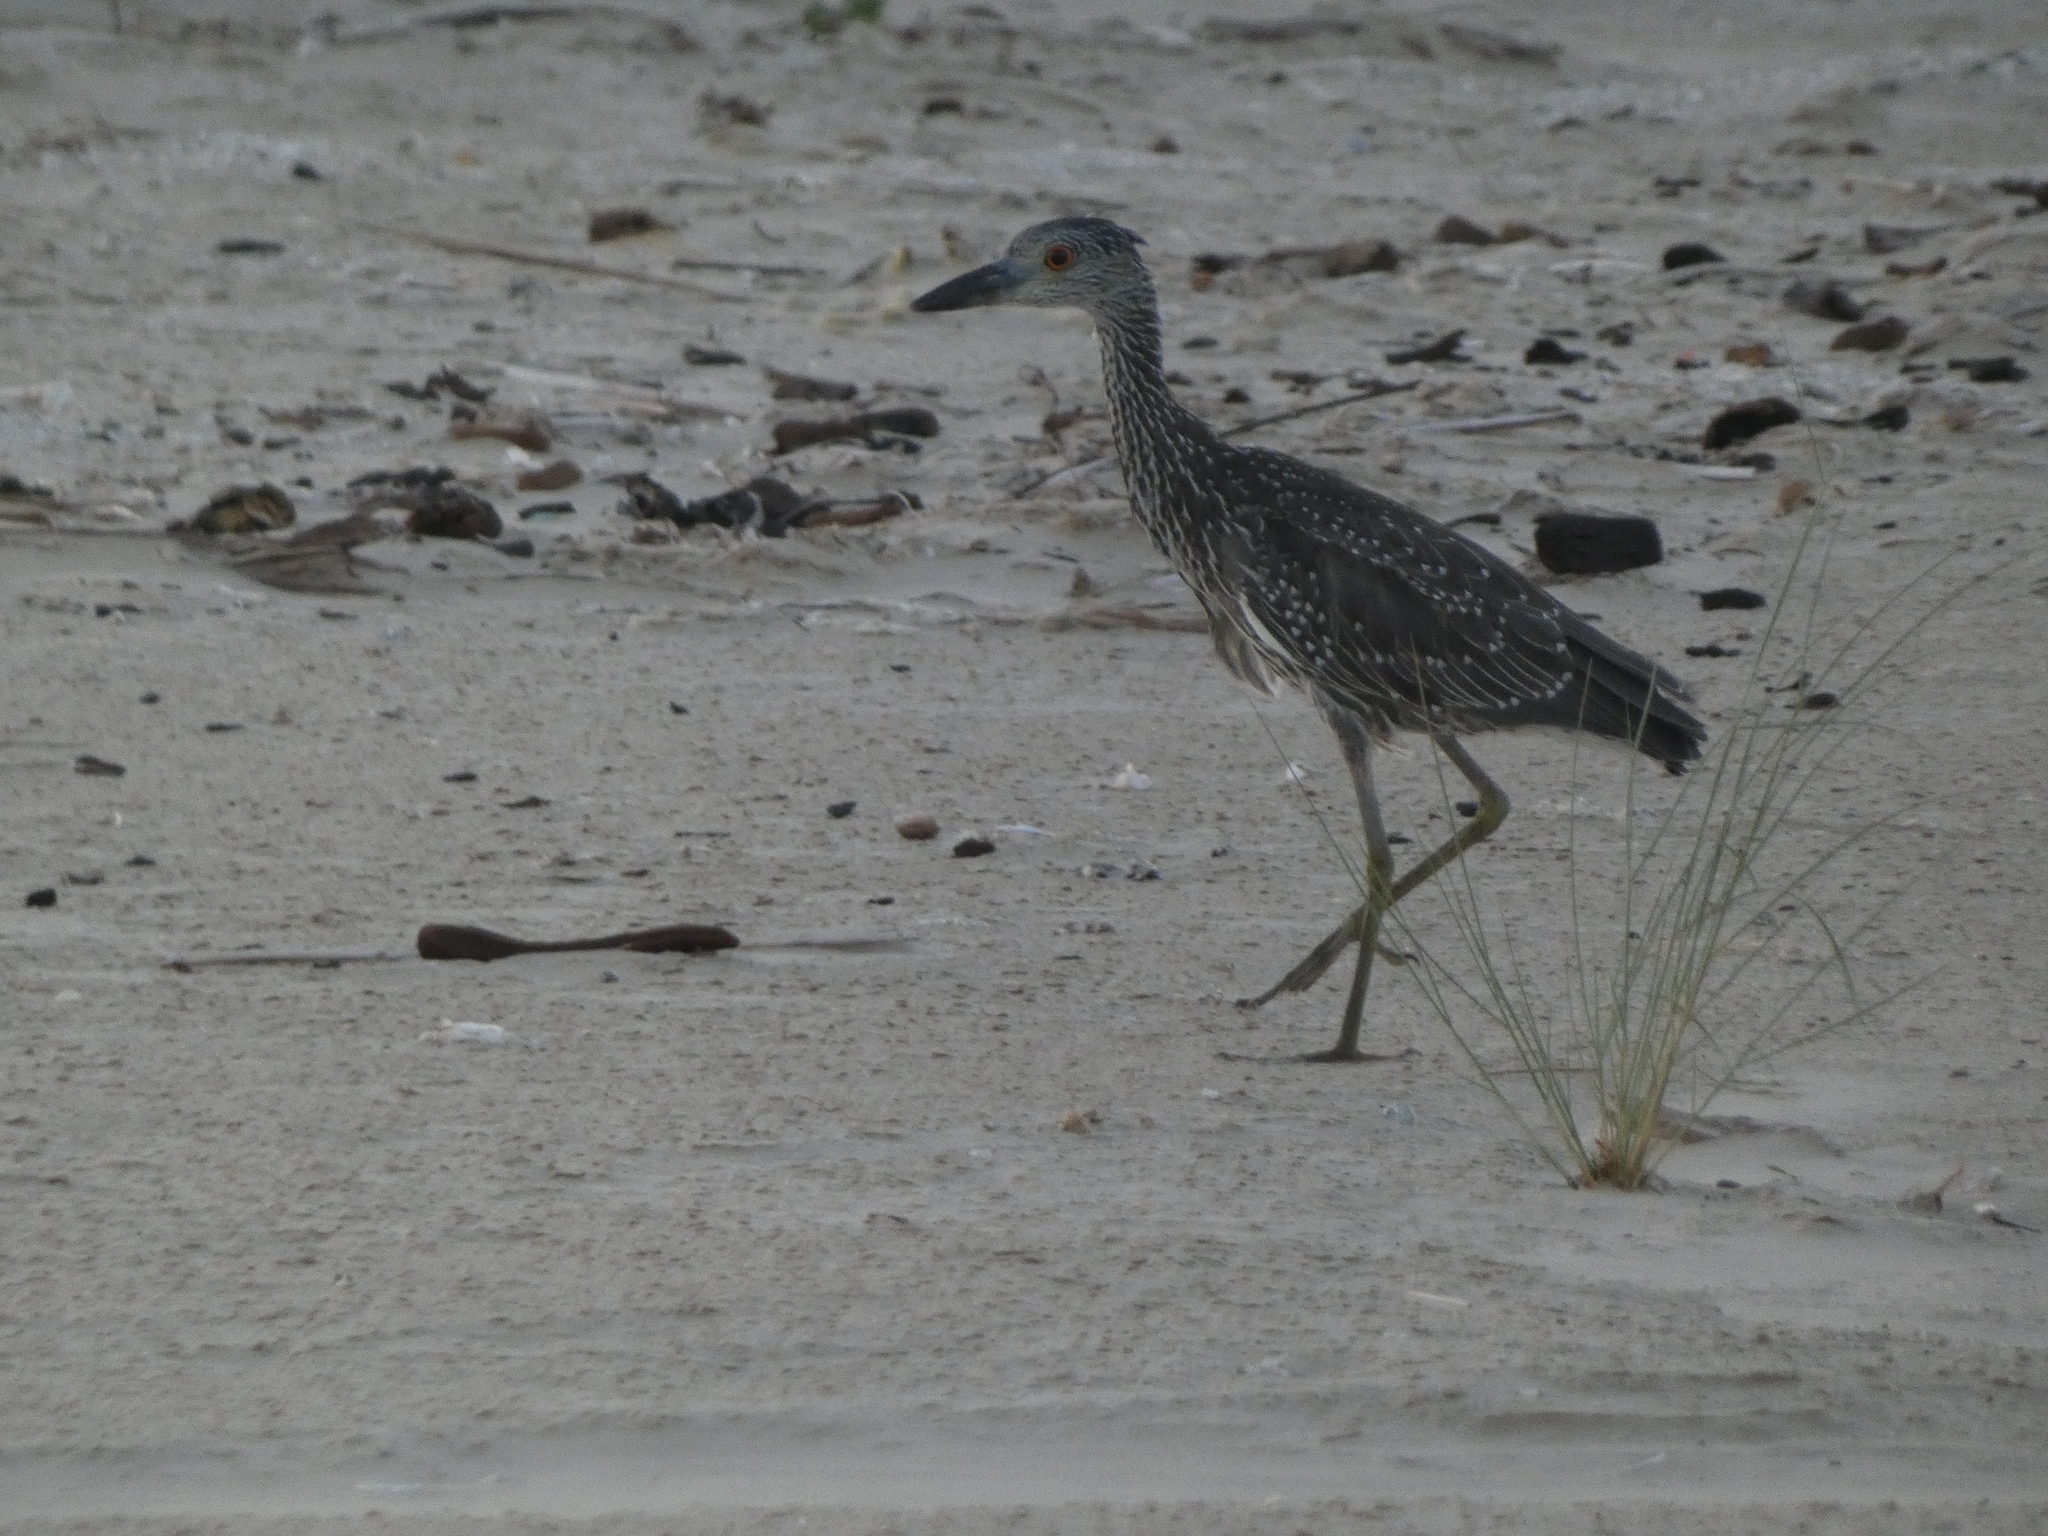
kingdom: Animalia
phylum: Chordata
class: Aves
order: Pelecaniformes
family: Ardeidae
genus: Nyctanassa
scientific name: Nyctanassa violacea
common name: Yellow-crowned night heron
